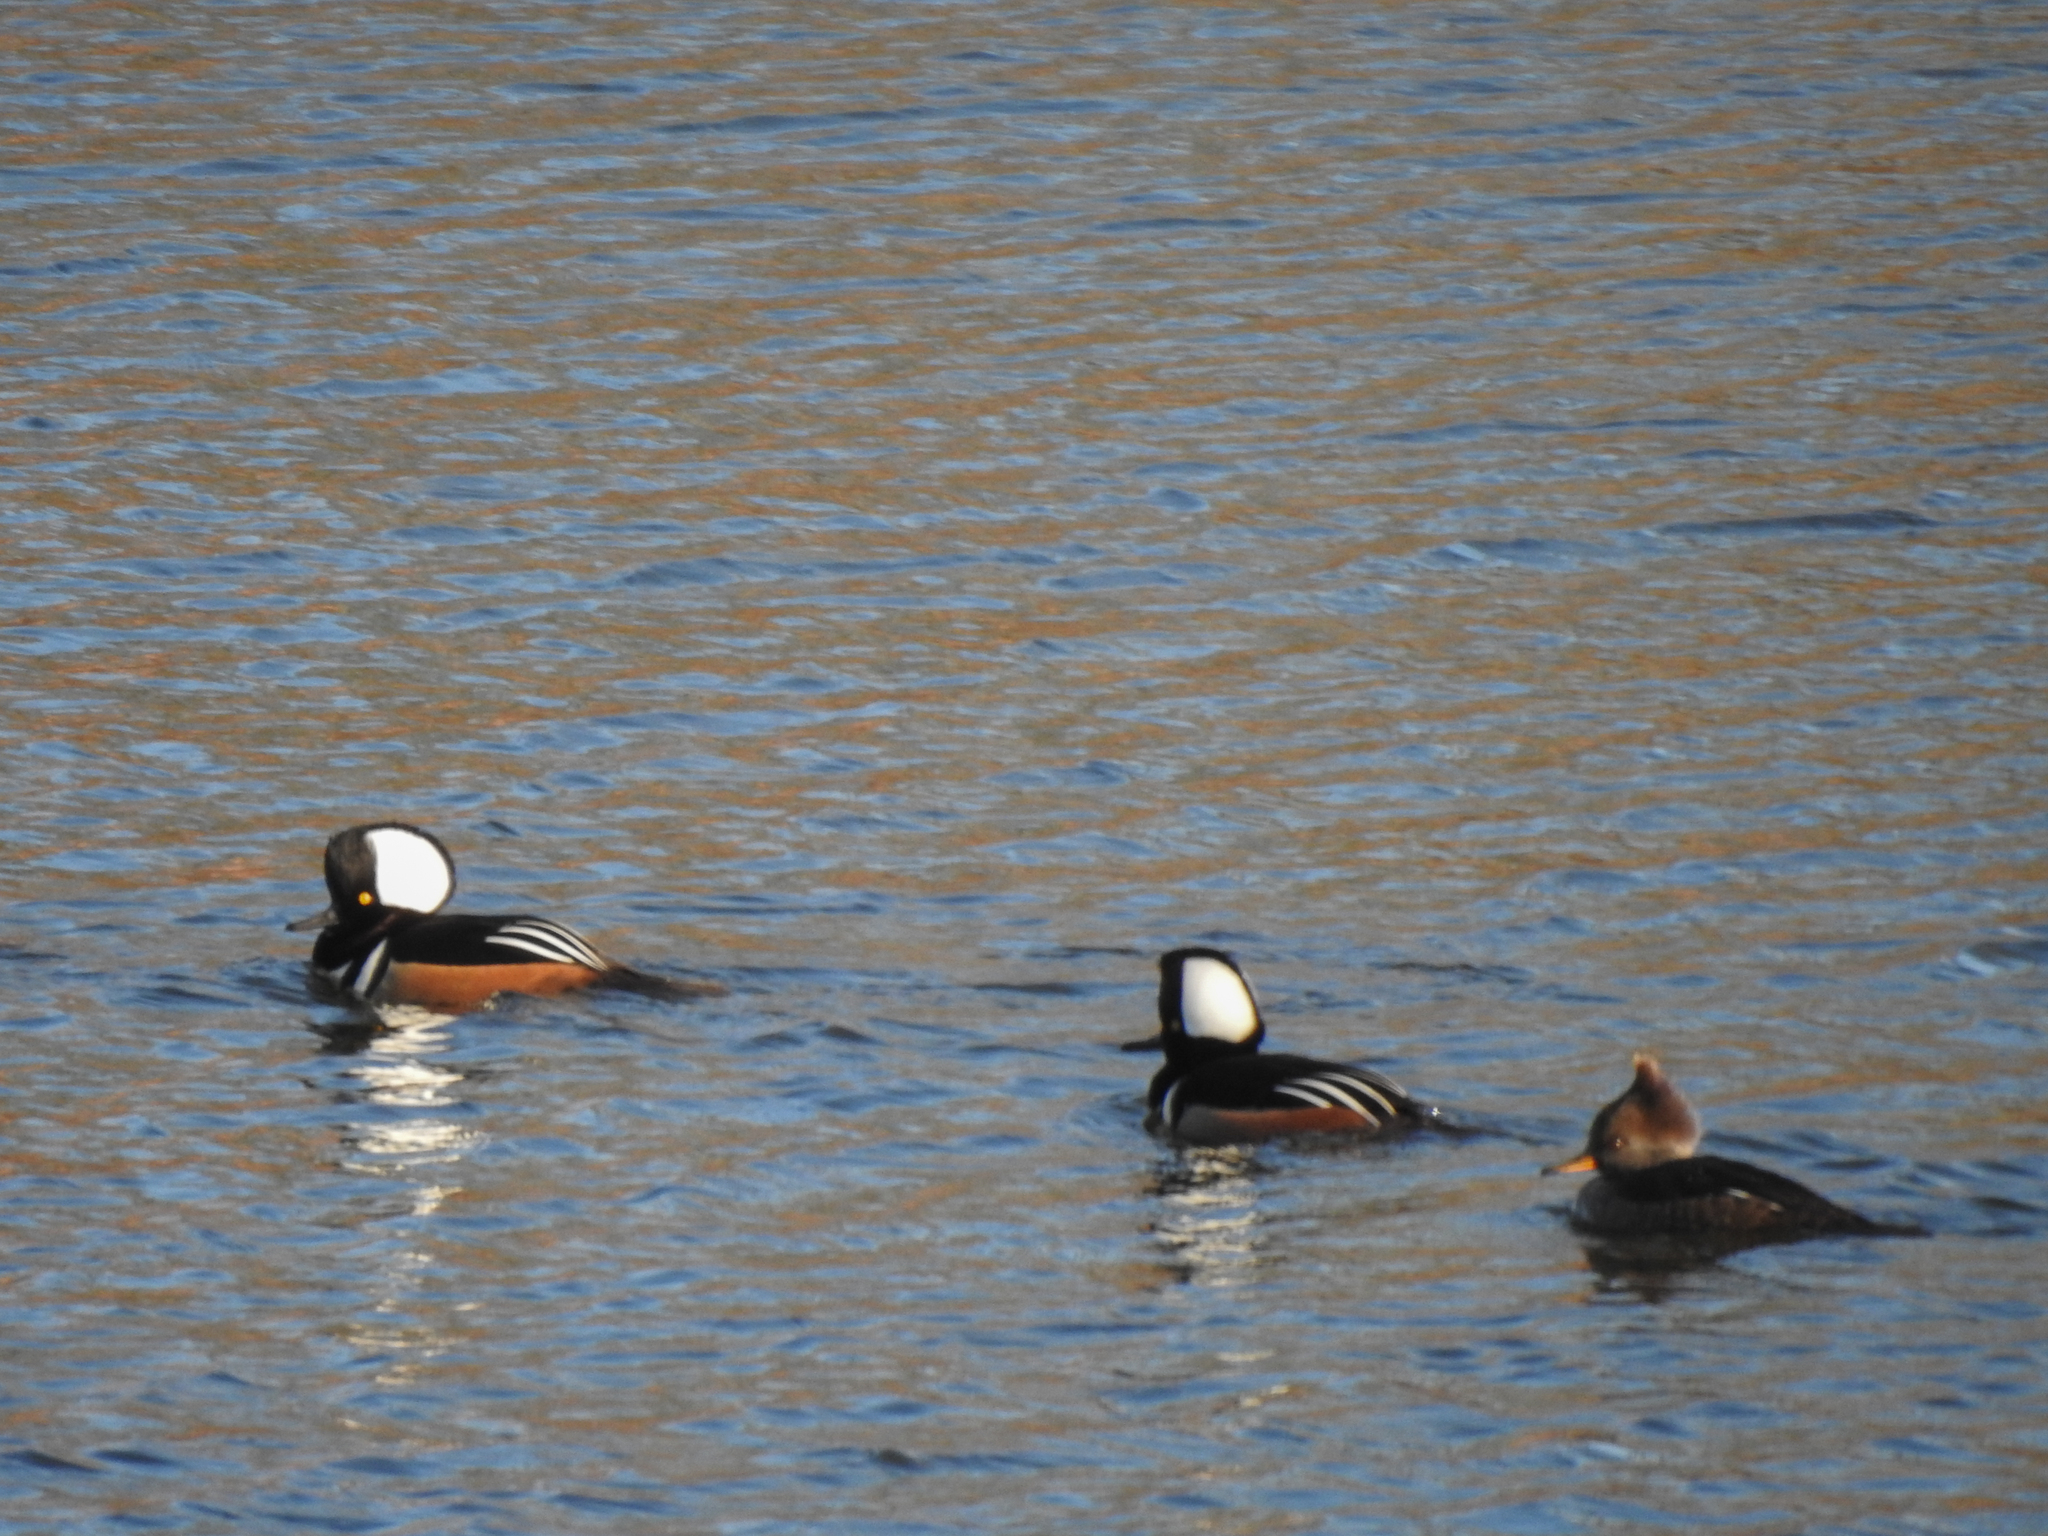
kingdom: Animalia
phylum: Chordata
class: Aves
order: Anseriformes
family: Anatidae
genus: Lophodytes
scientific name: Lophodytes cucullatus
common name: Hooded merganser
